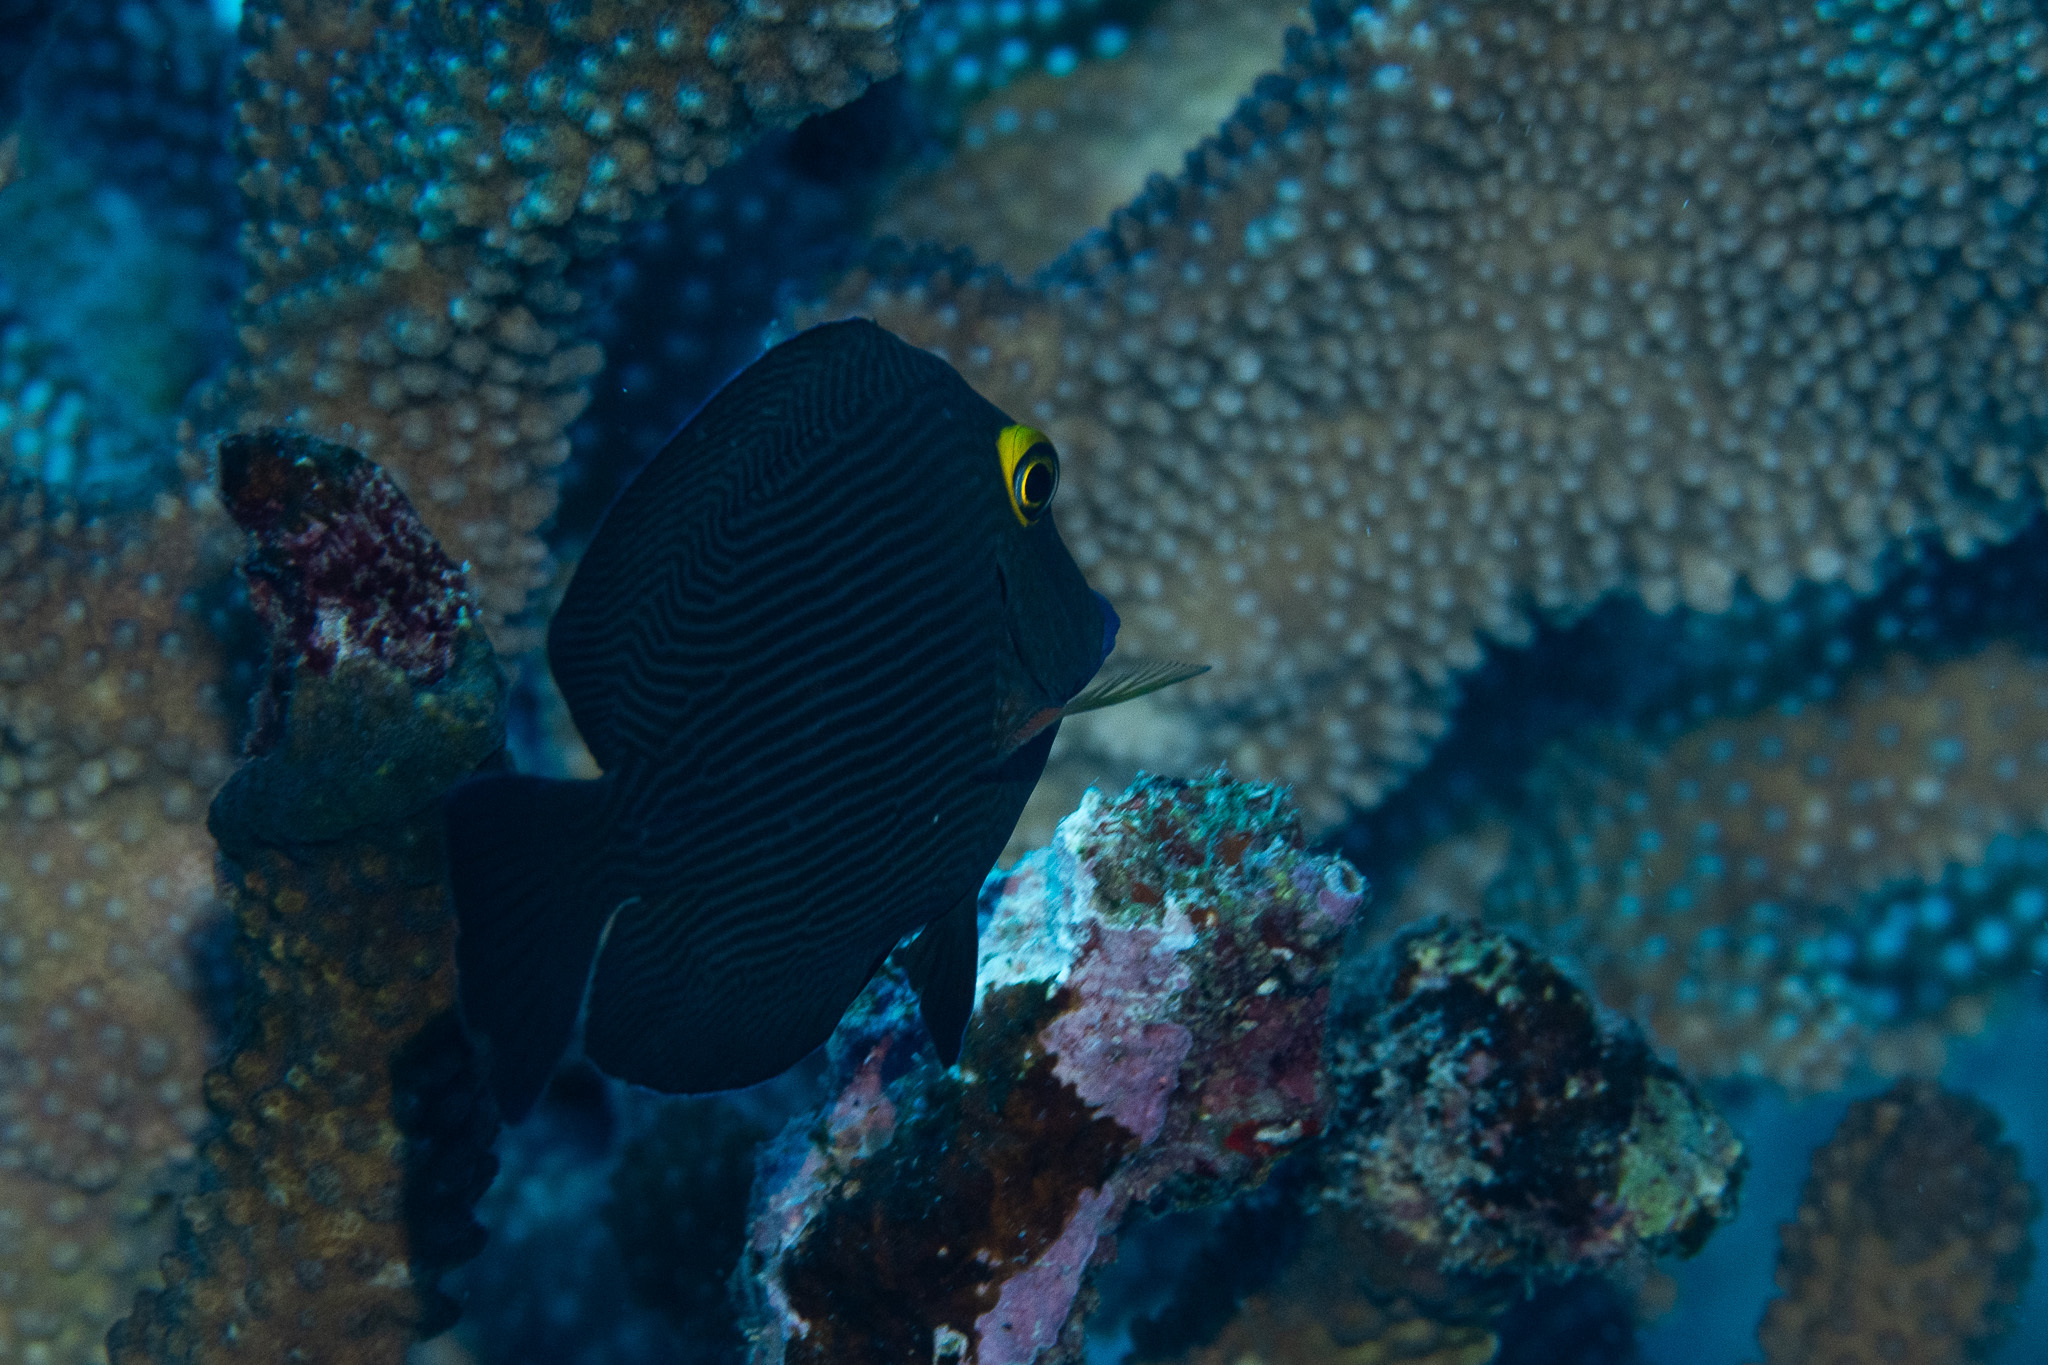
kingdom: Animalia
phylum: Chordata
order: Perciformes
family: Acanthuridae
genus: Ctenochaetus
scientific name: Ctenochaetus strigosus
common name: Bristletoothed surgeonfish
